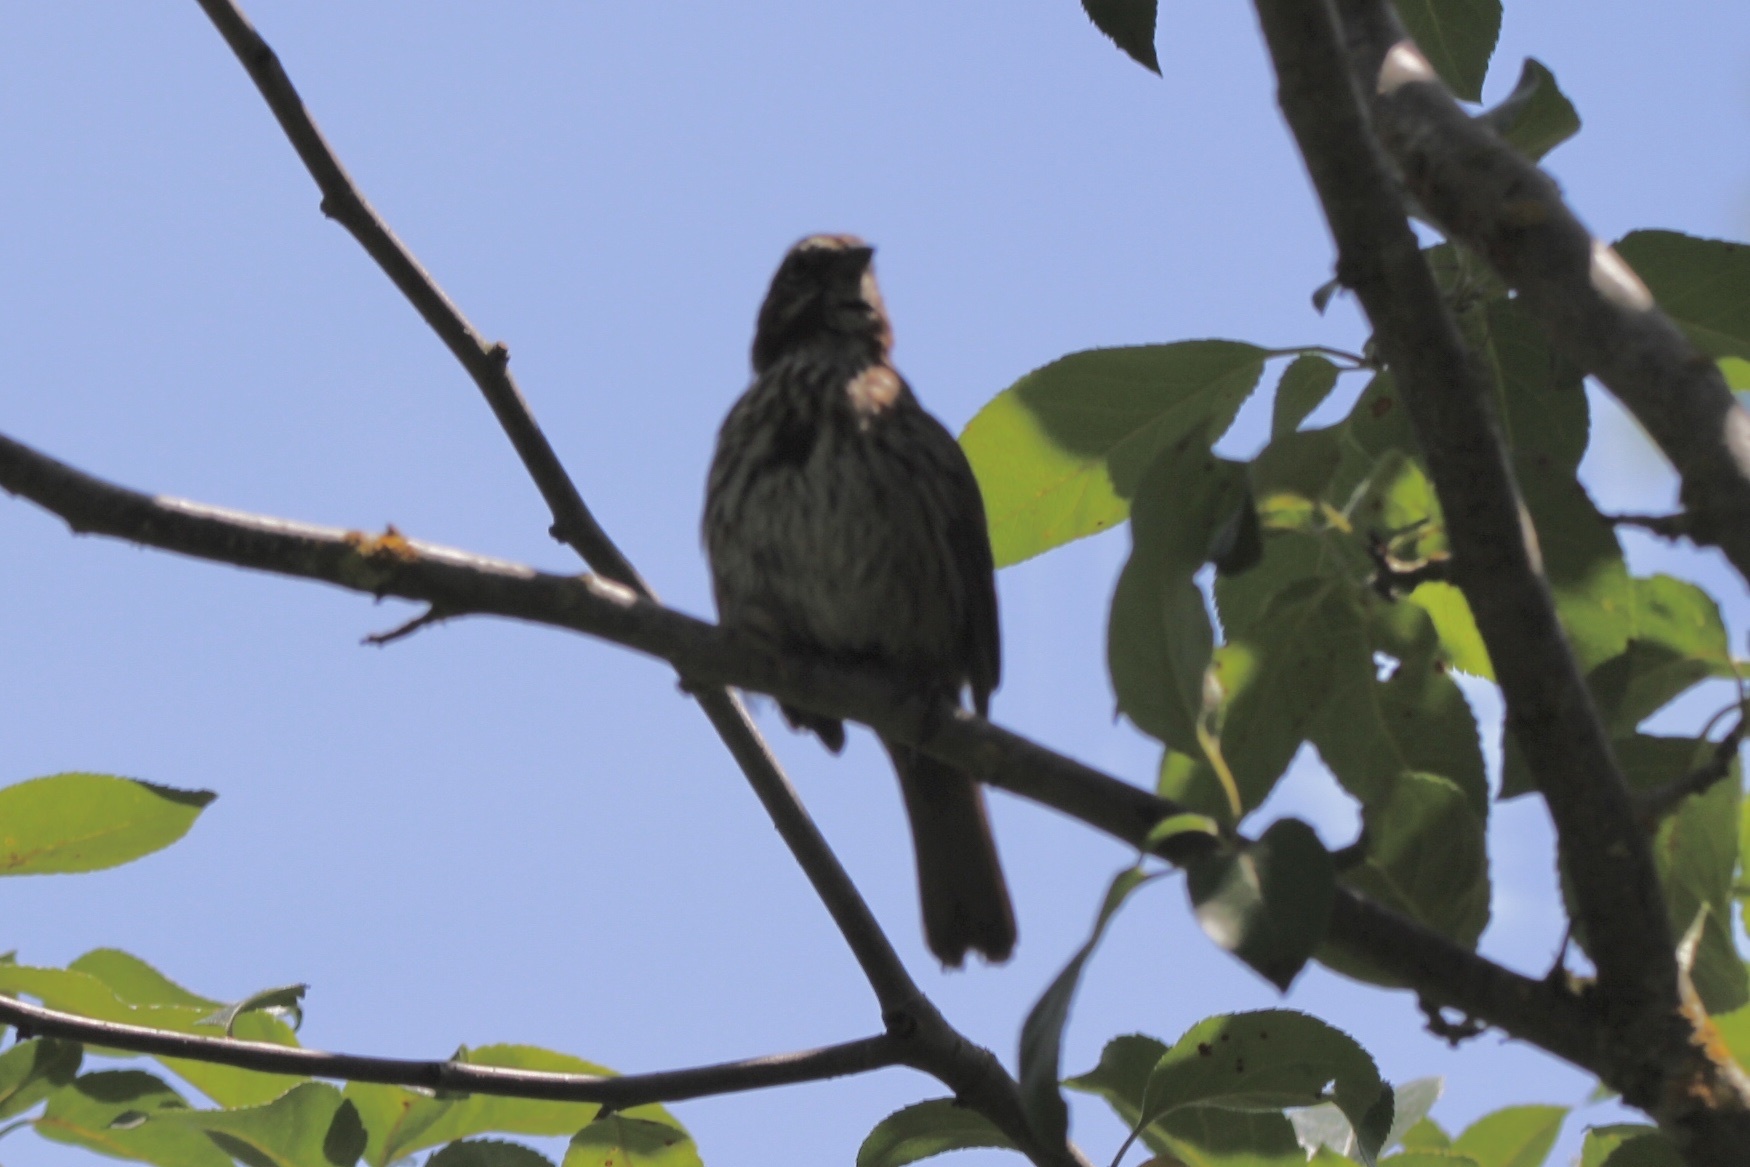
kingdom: Animalia
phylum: Chordata
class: Aves
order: Passeriformes
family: Passerellidae
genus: Melospiza
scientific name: Melospiza melodia
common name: Song sparrow
